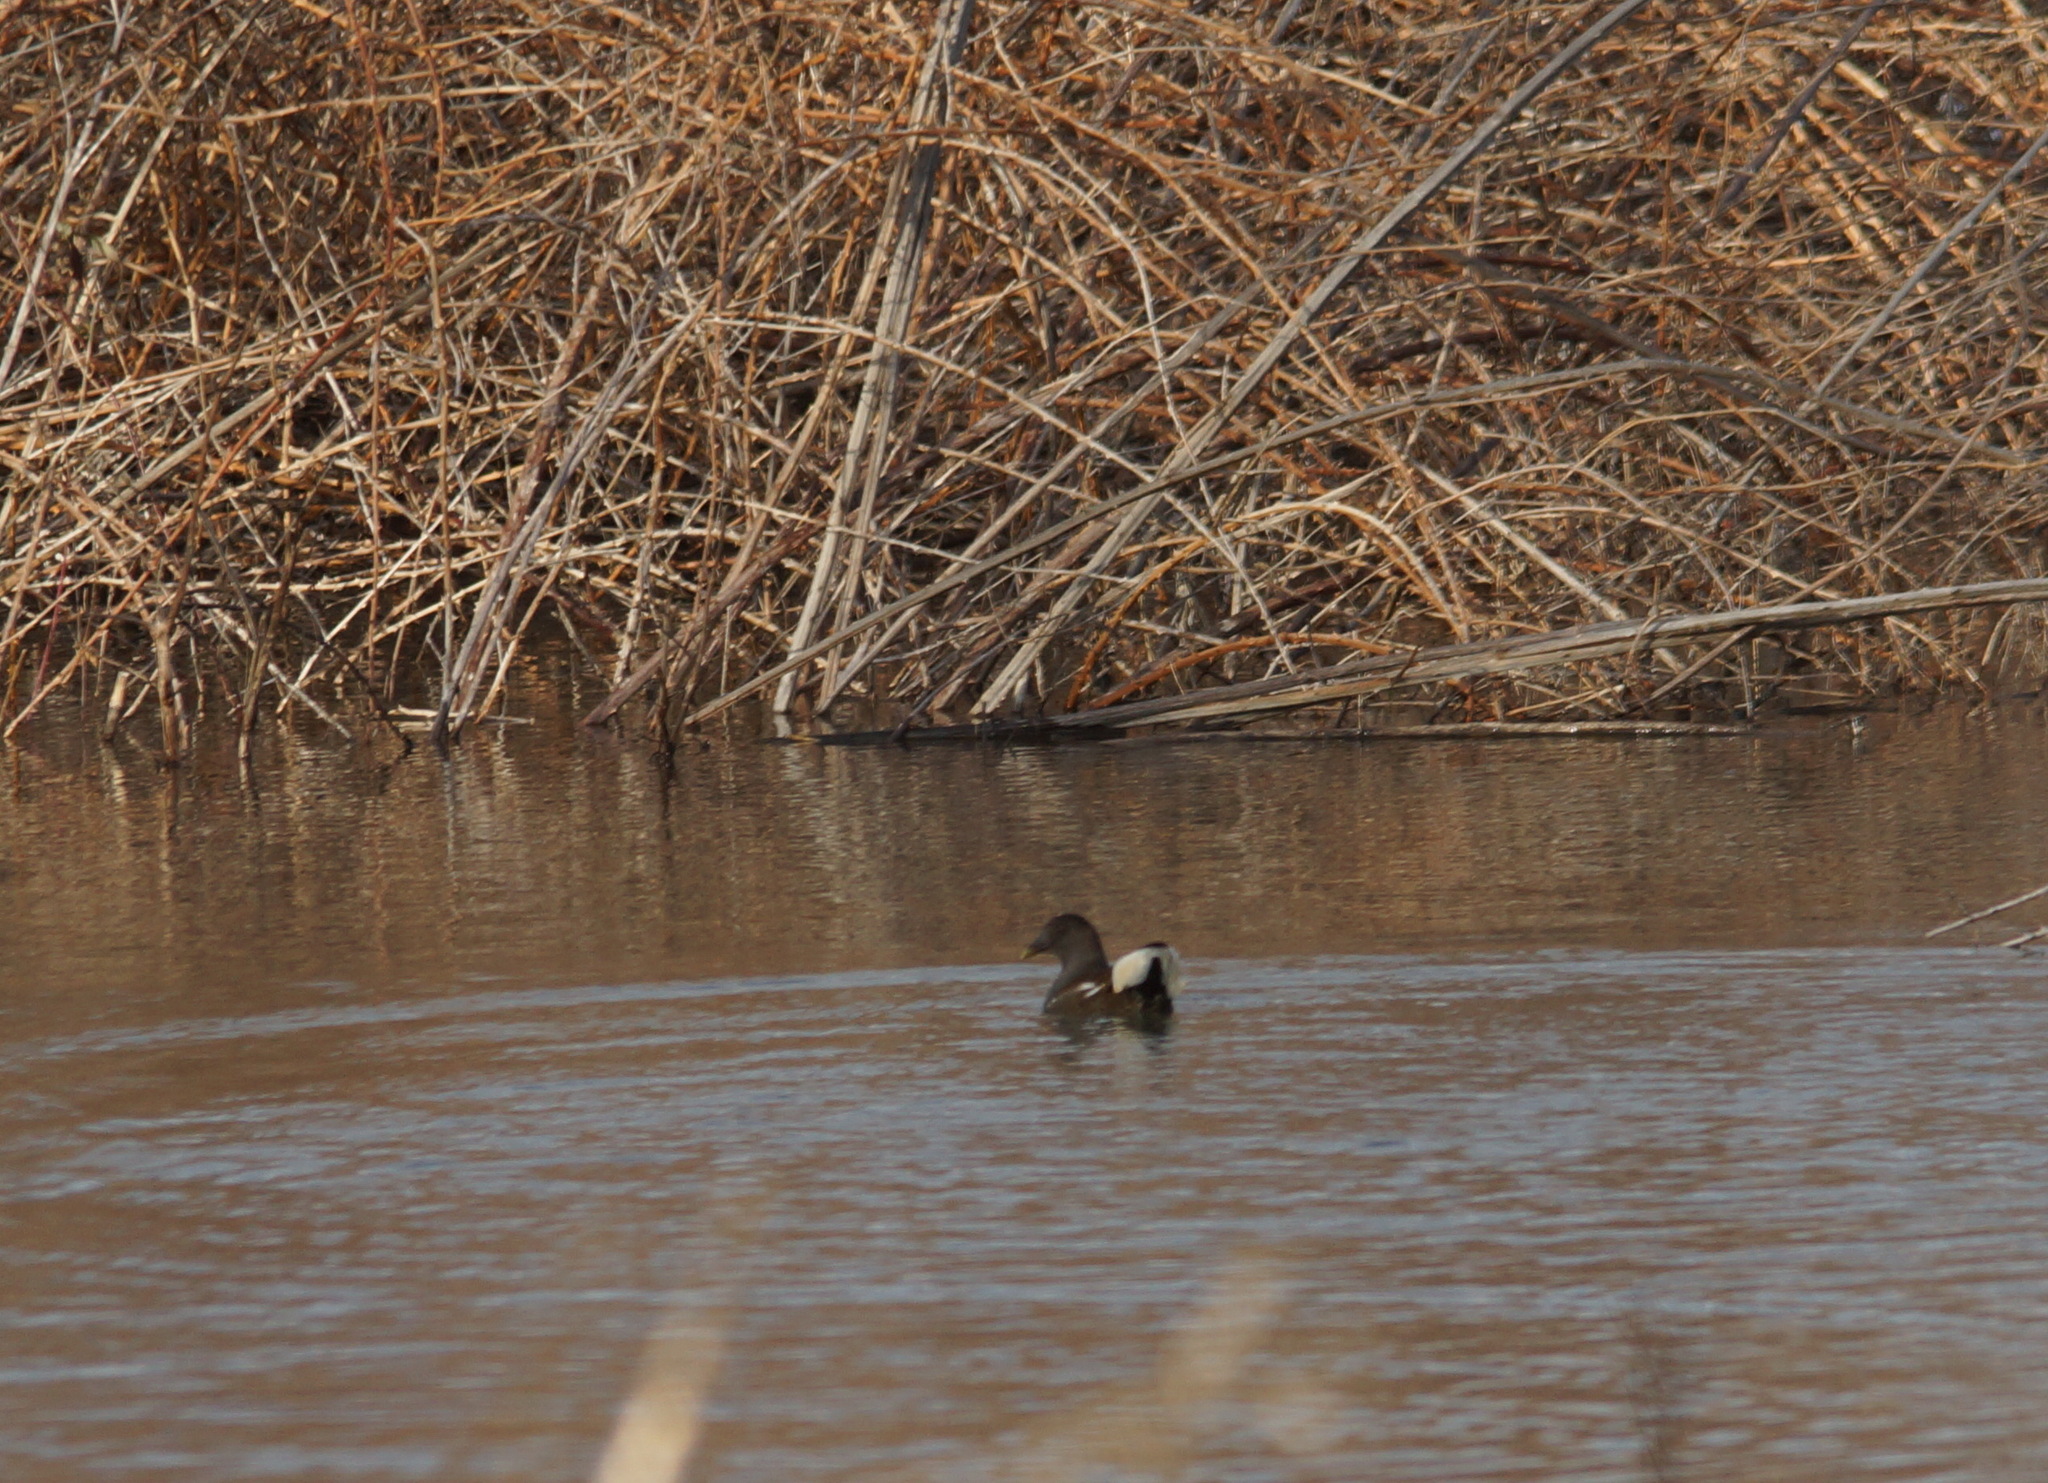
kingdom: Animalia
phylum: Chordata
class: Aves
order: Gruiformes
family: Rallidae
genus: Gallinula
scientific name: Gallinula chloropus
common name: Common moorhen
